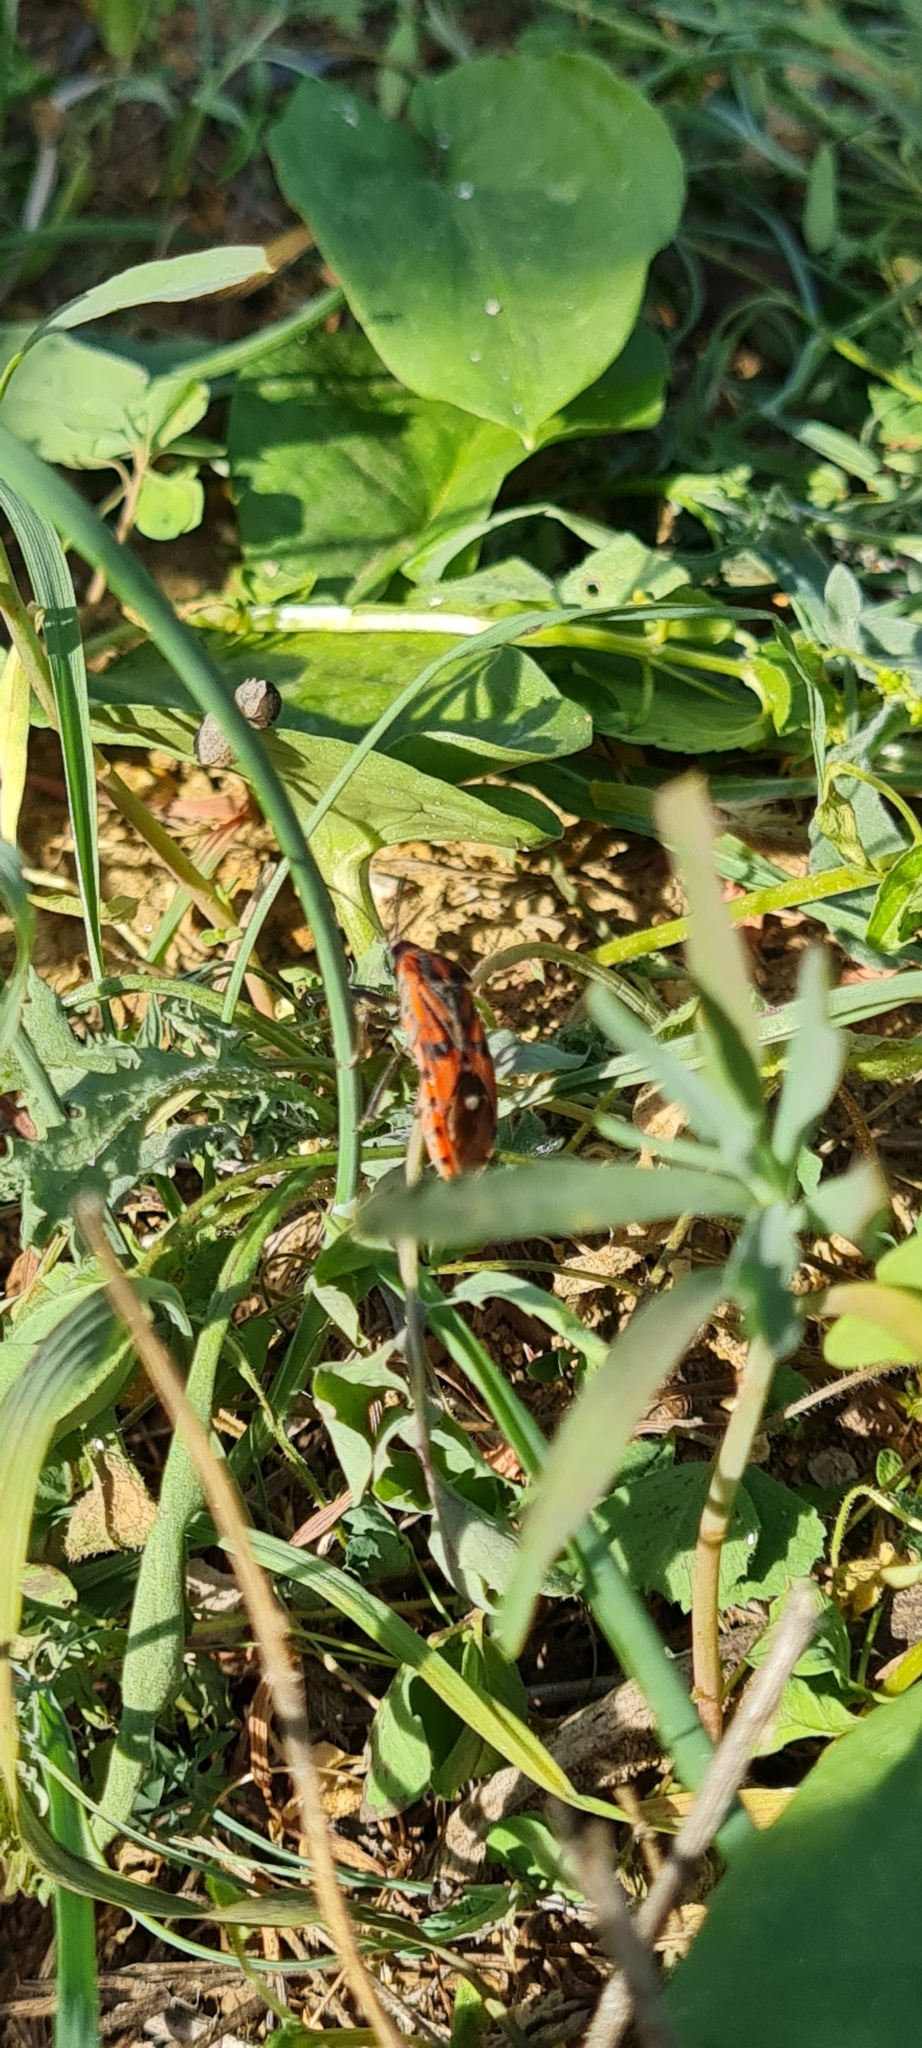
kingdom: Animalia
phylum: Arthropoda
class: Insecta
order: Hemiptera
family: Lygaeidae
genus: Spilostethus
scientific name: Spilostethus pandurus
